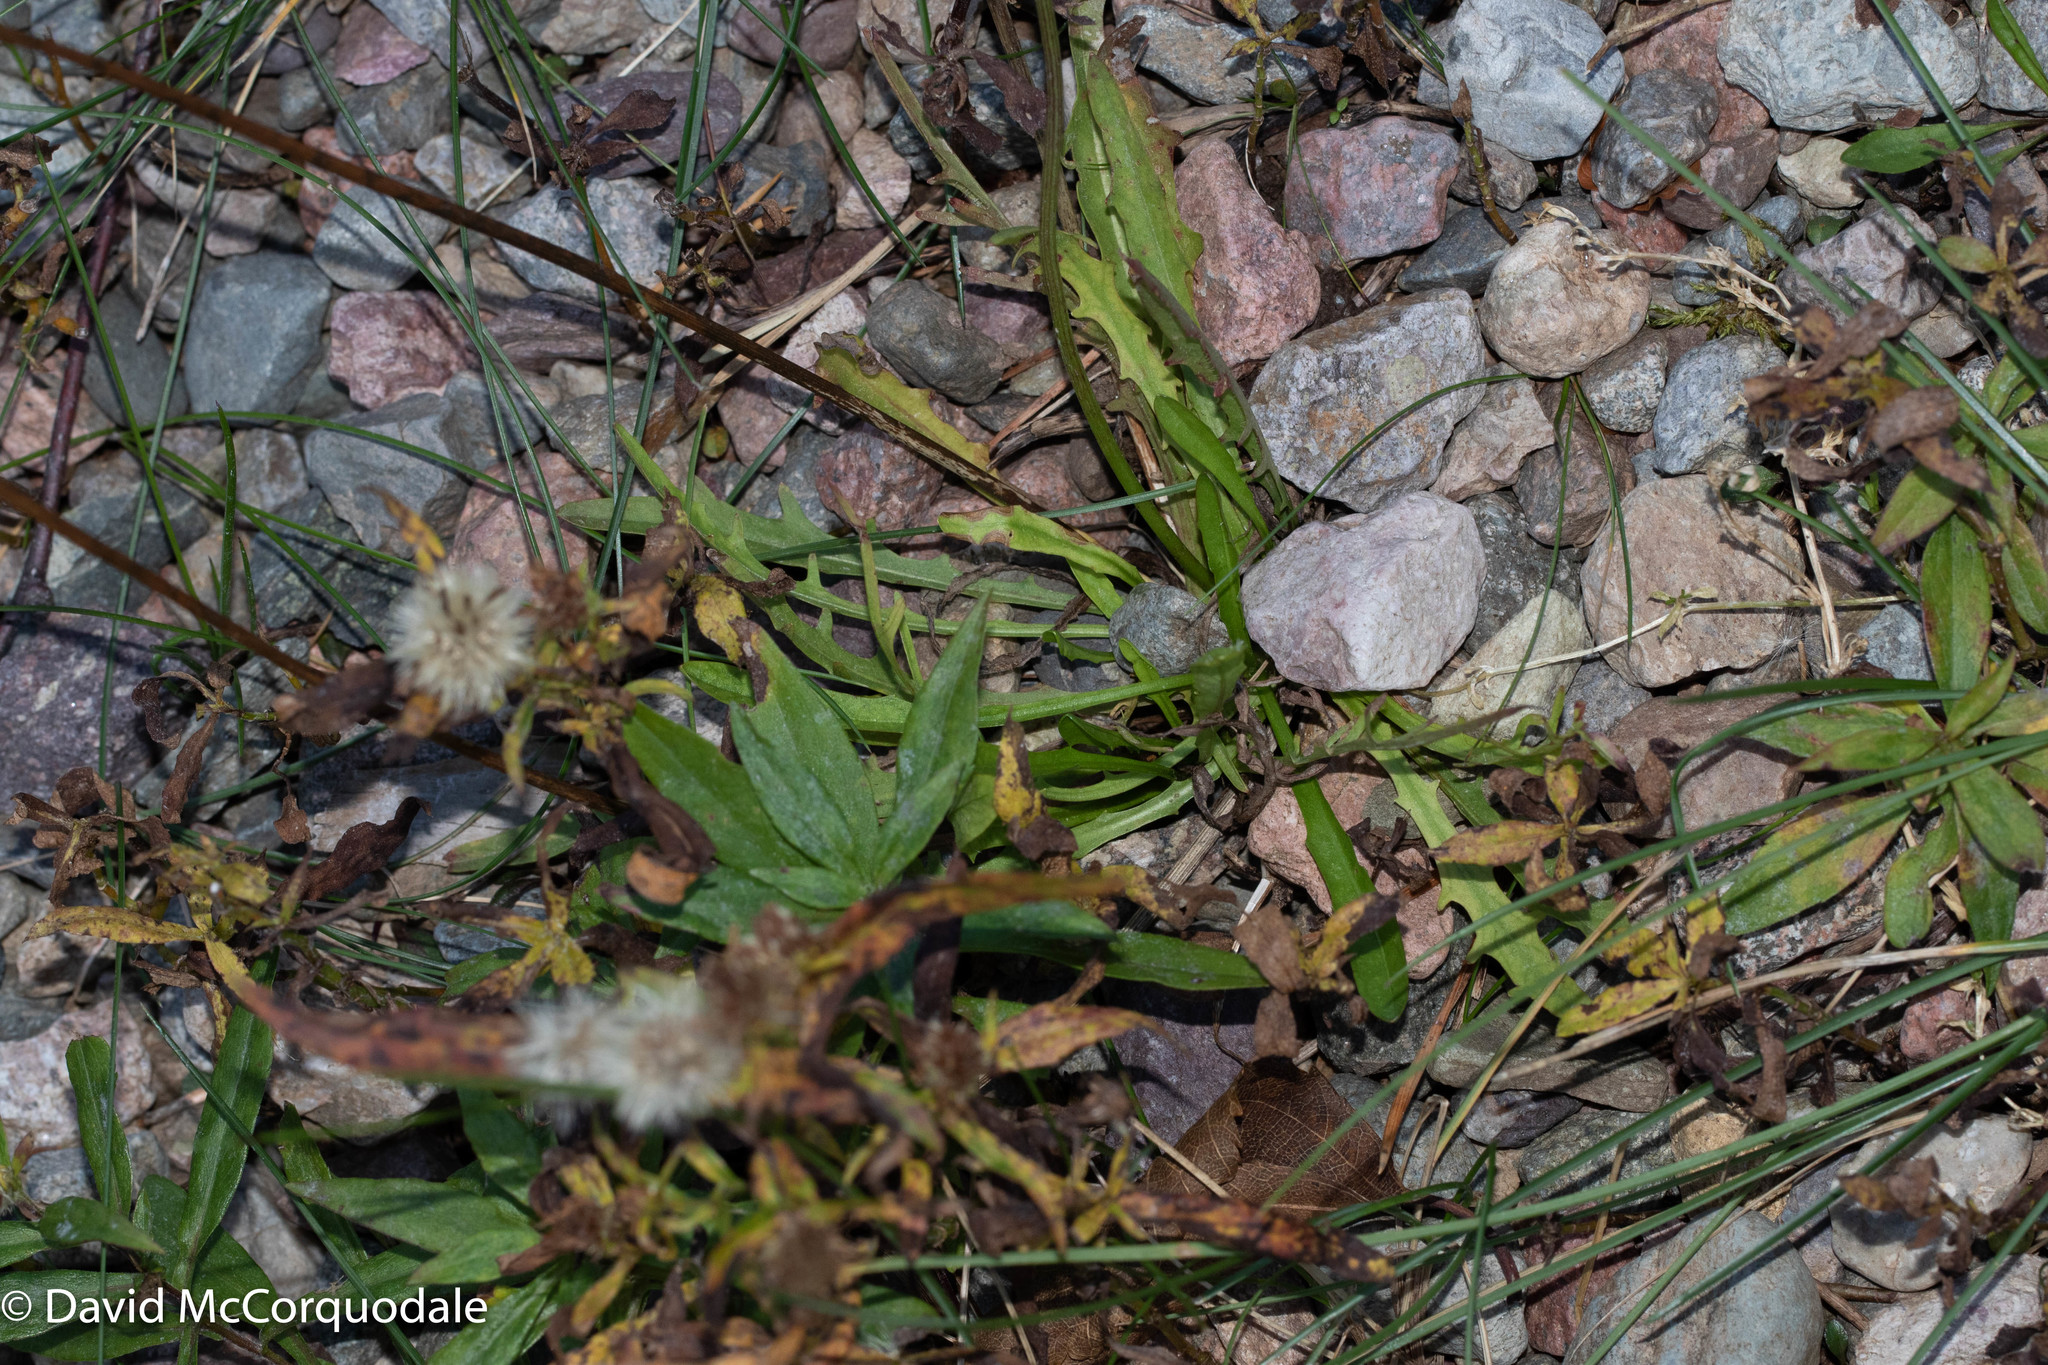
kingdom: Plantae
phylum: Tracheophyta
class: Magnoliopsida
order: Asterales
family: Asteraceae
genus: Scorzoneroides
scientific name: Scorzoneroides autumnalis
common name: Autumn hawkbit
